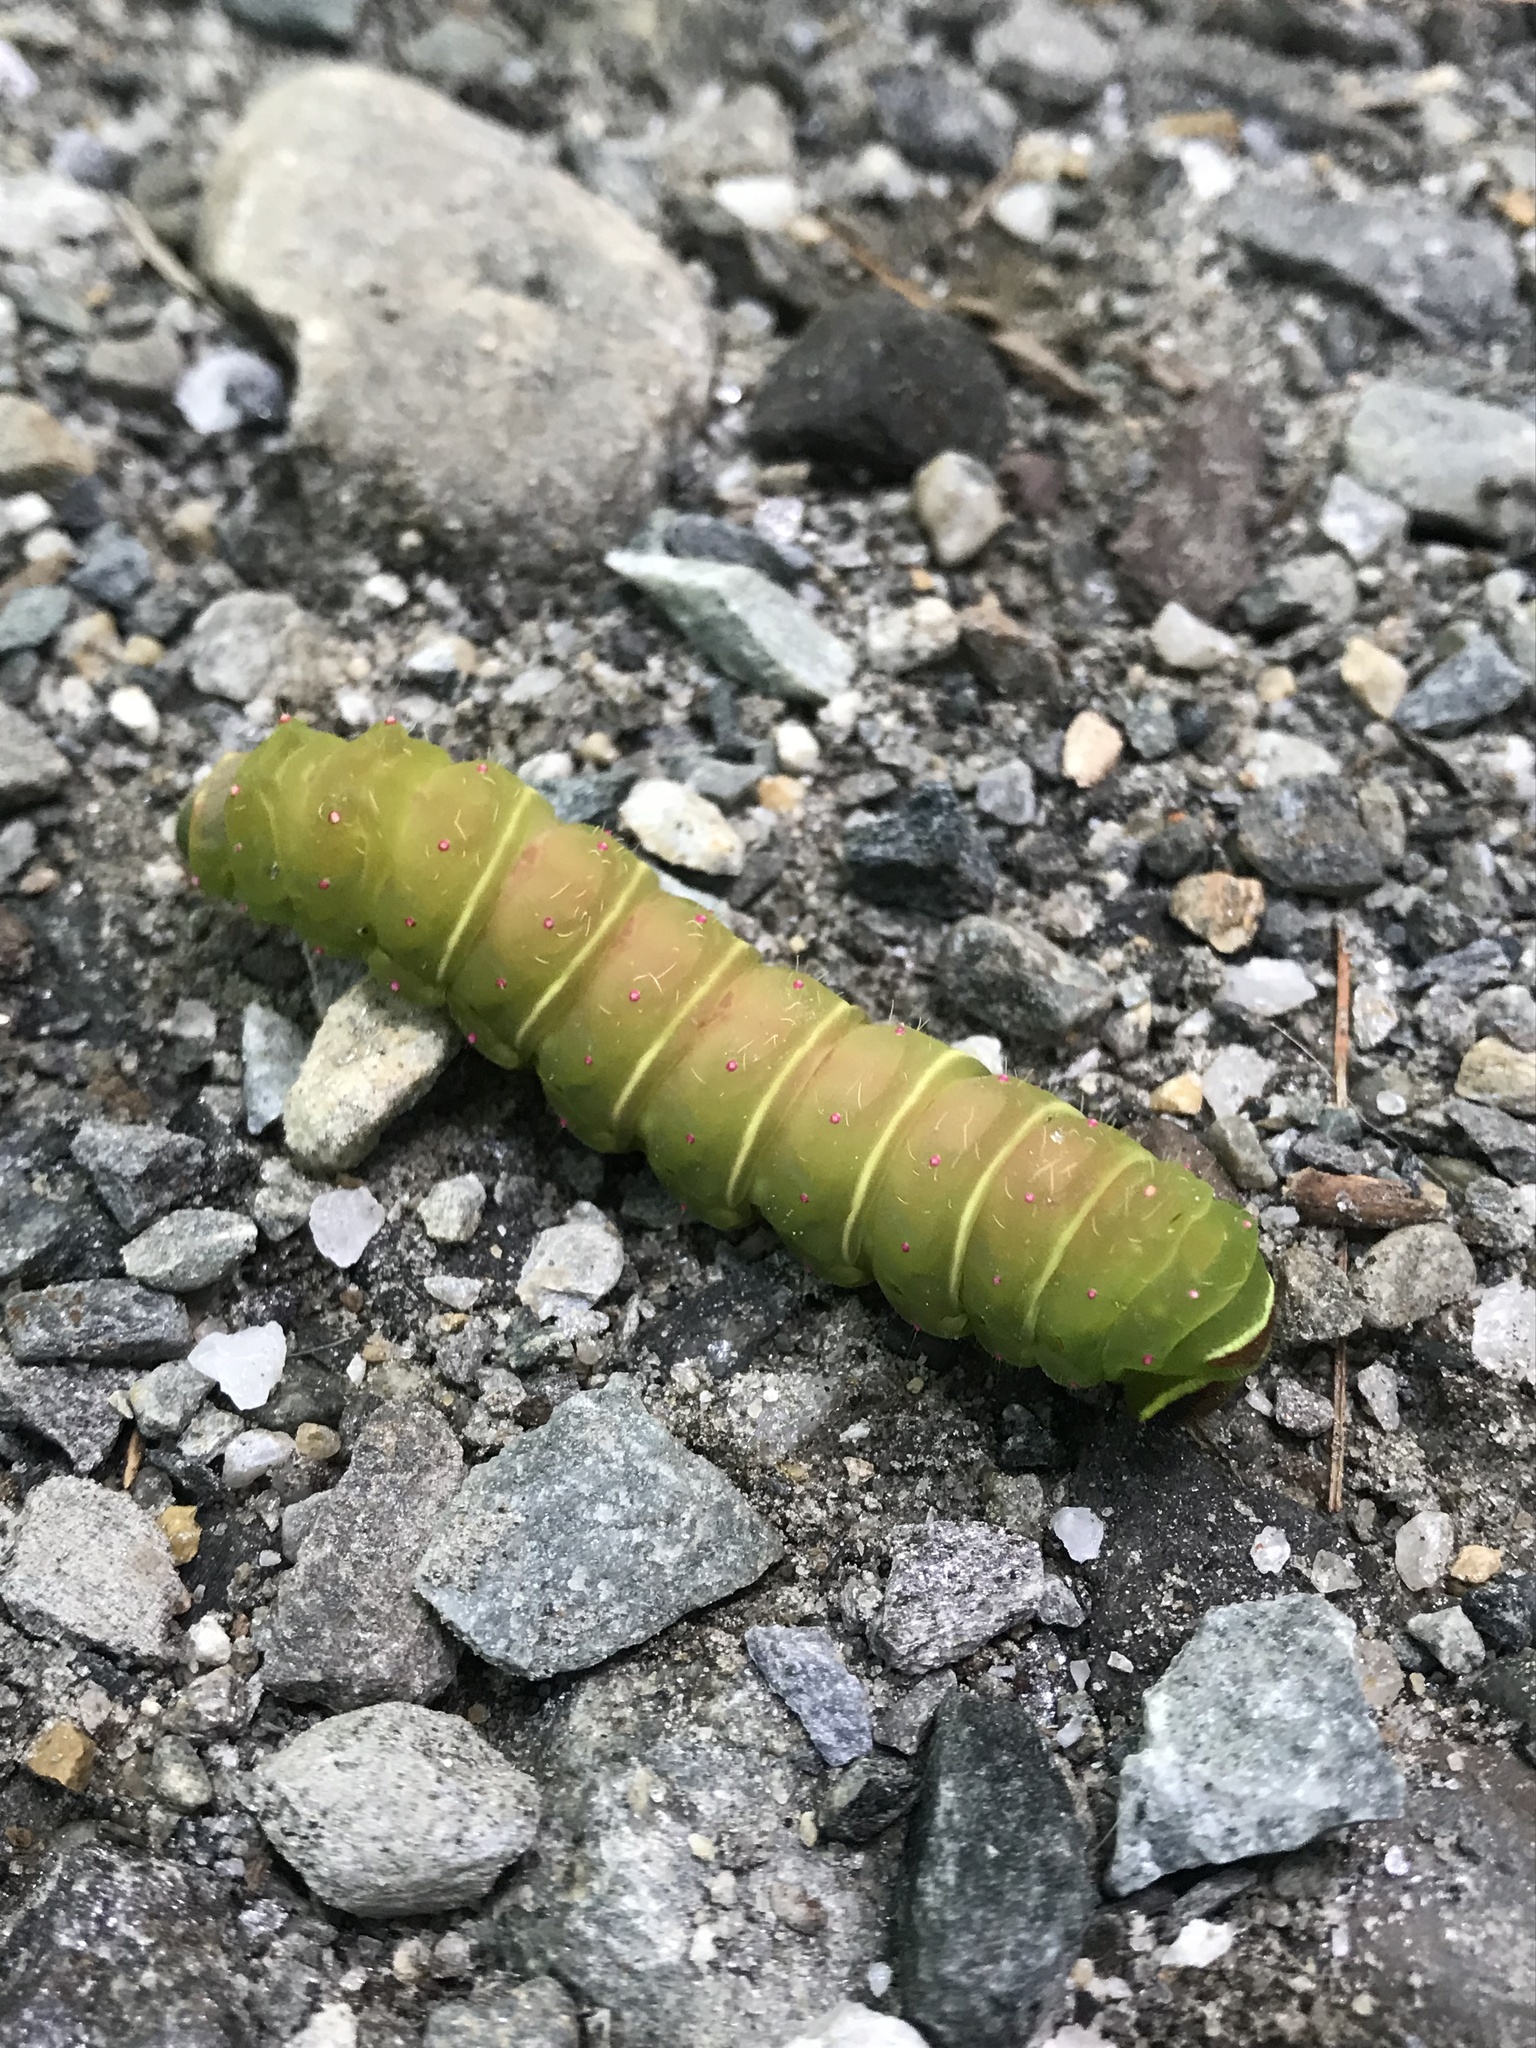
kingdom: Animalia
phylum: Arthropoda
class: Insecta
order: Lepidoptera
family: Saturniidae
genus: Actias
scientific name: Actias luna
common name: Luna moth
